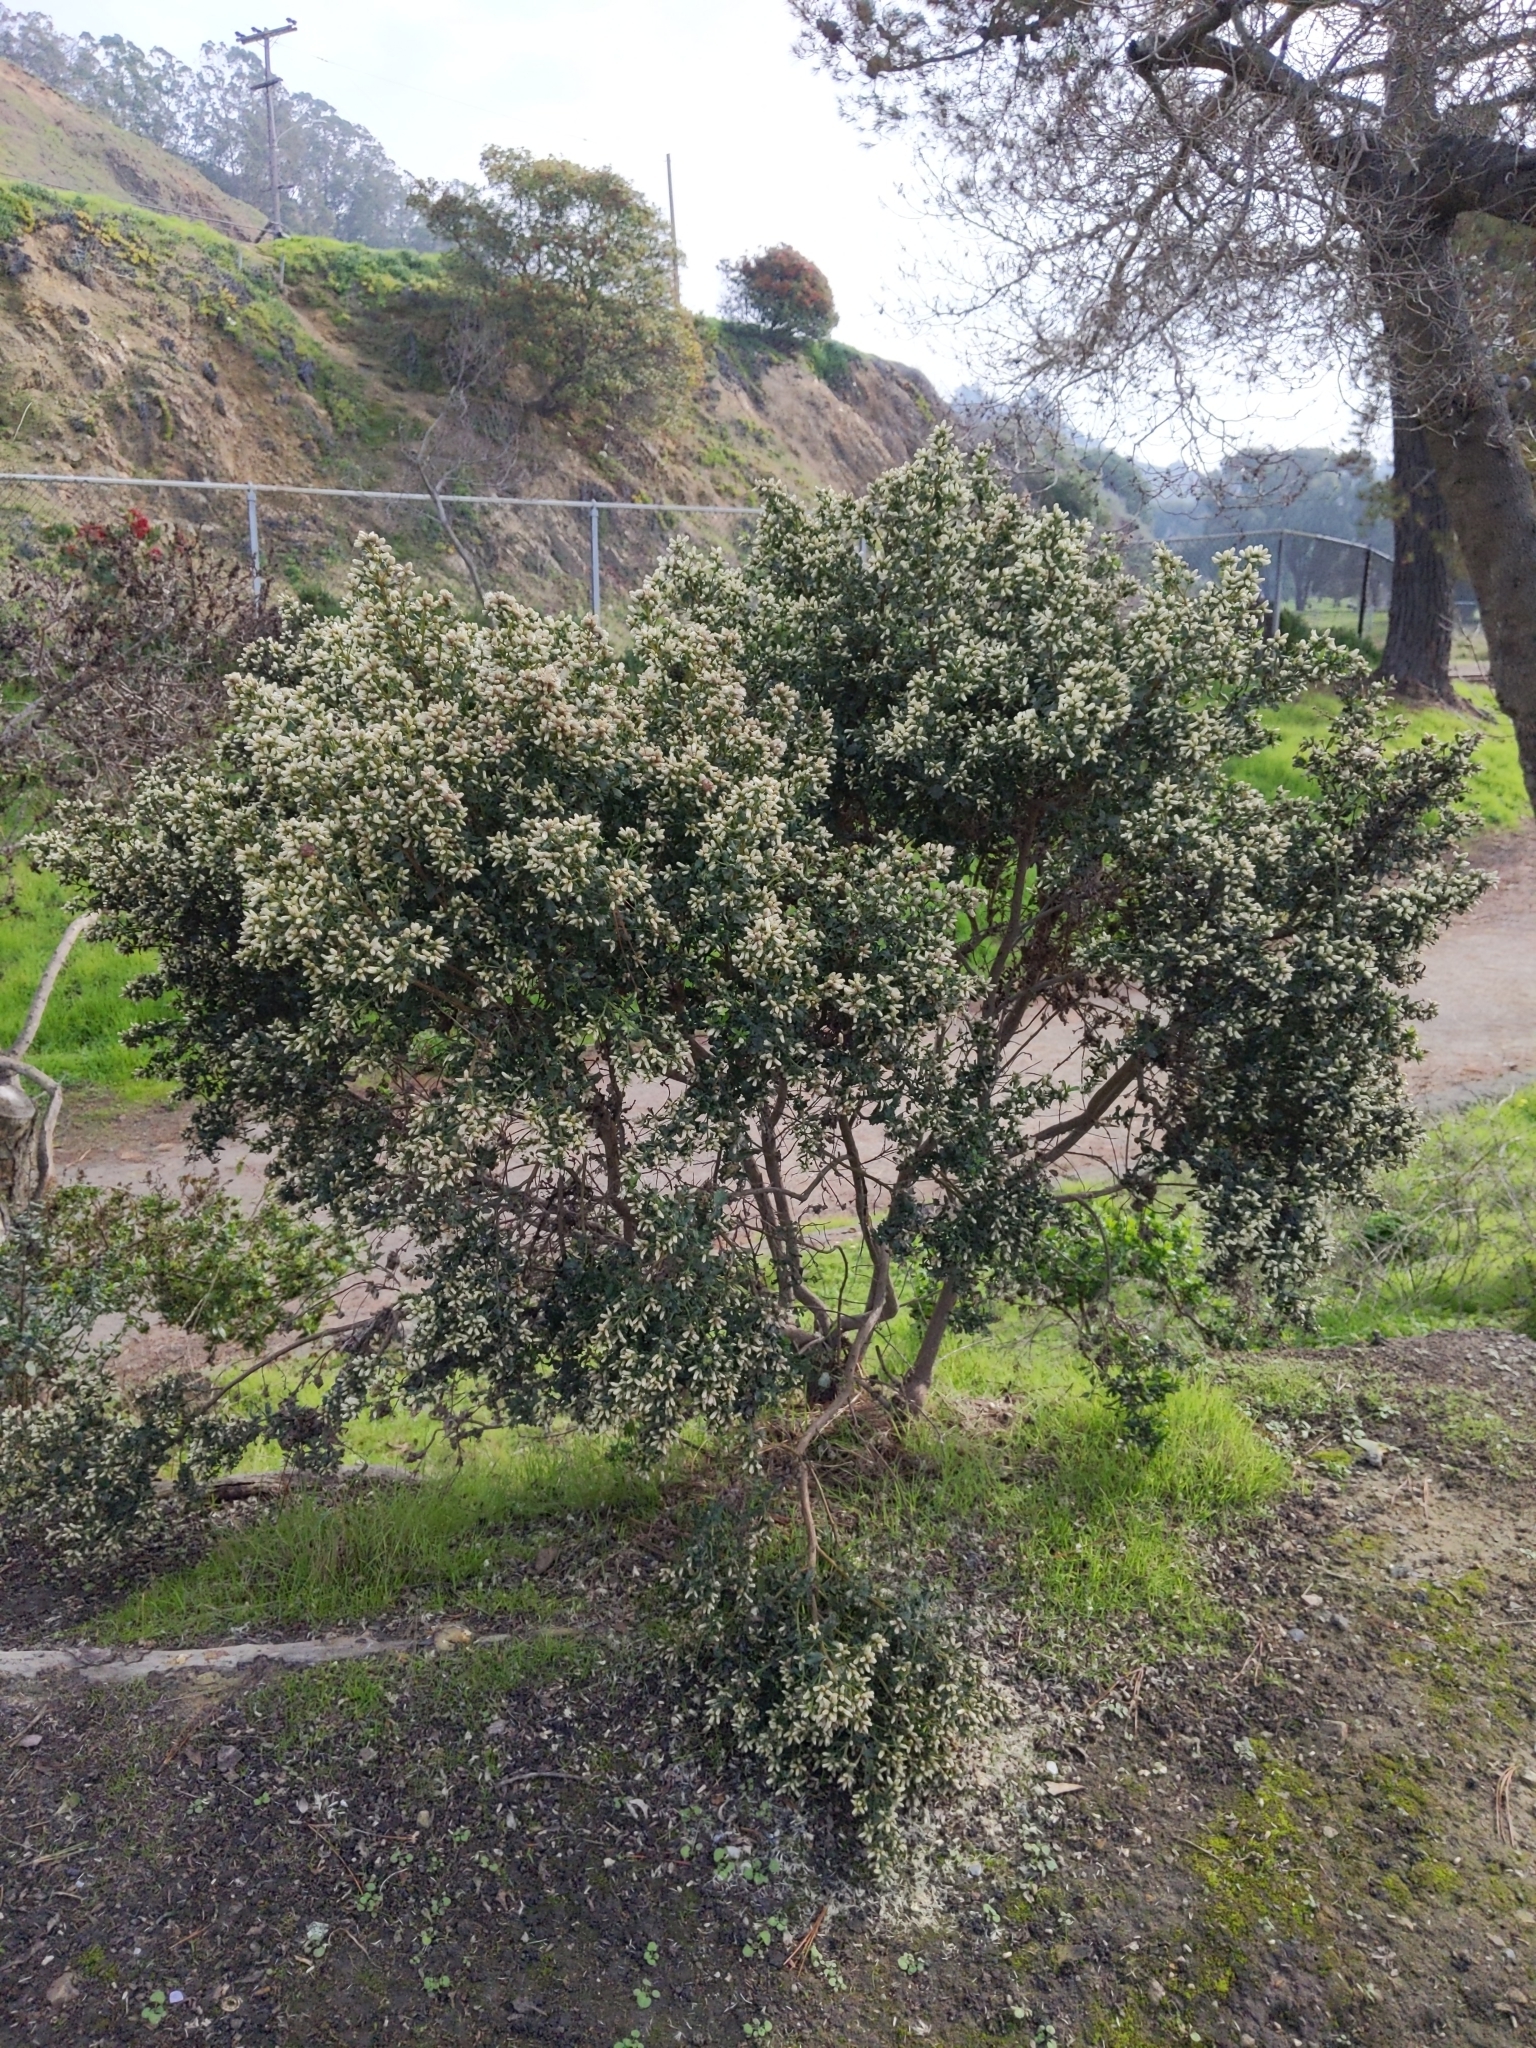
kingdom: Plantae
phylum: Tracheophyta
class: Magnoliopsida
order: Asterales
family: Asteraceae
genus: Baccharis
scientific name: Baccharis pilularis
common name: Coyotebrush
